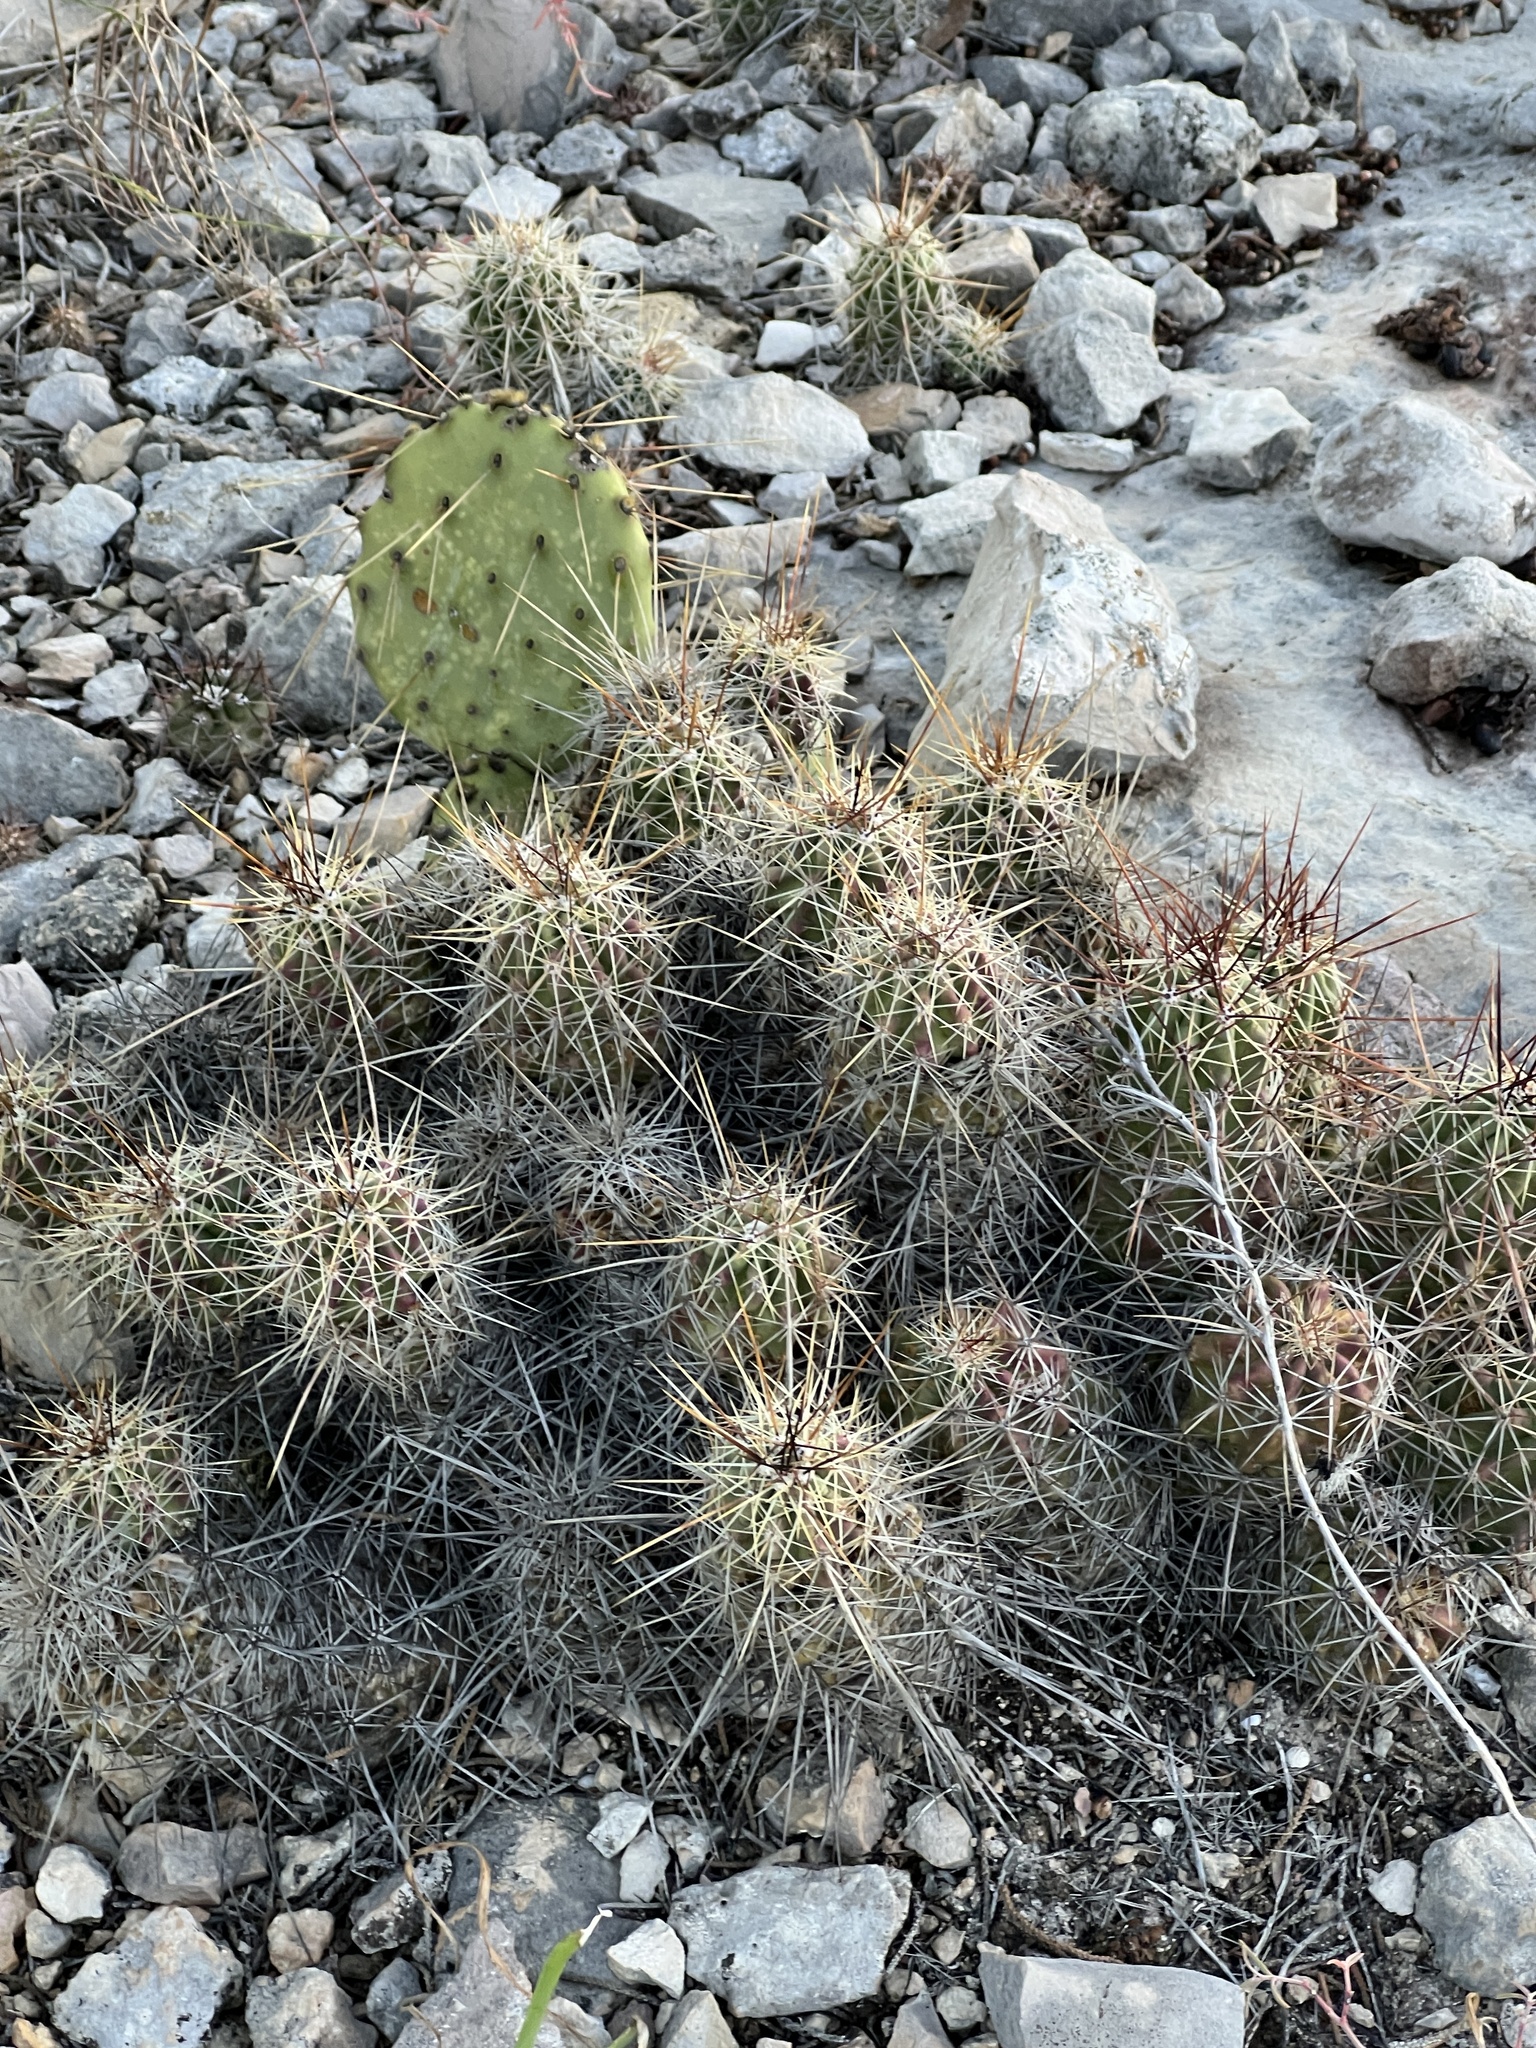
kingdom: Plantae
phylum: Tracheophyta
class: Magnoliopsida
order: Caryophyllales
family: Cactaceae
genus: Echinocereus
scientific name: Echinocereus enneacanthus
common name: Pitaya
